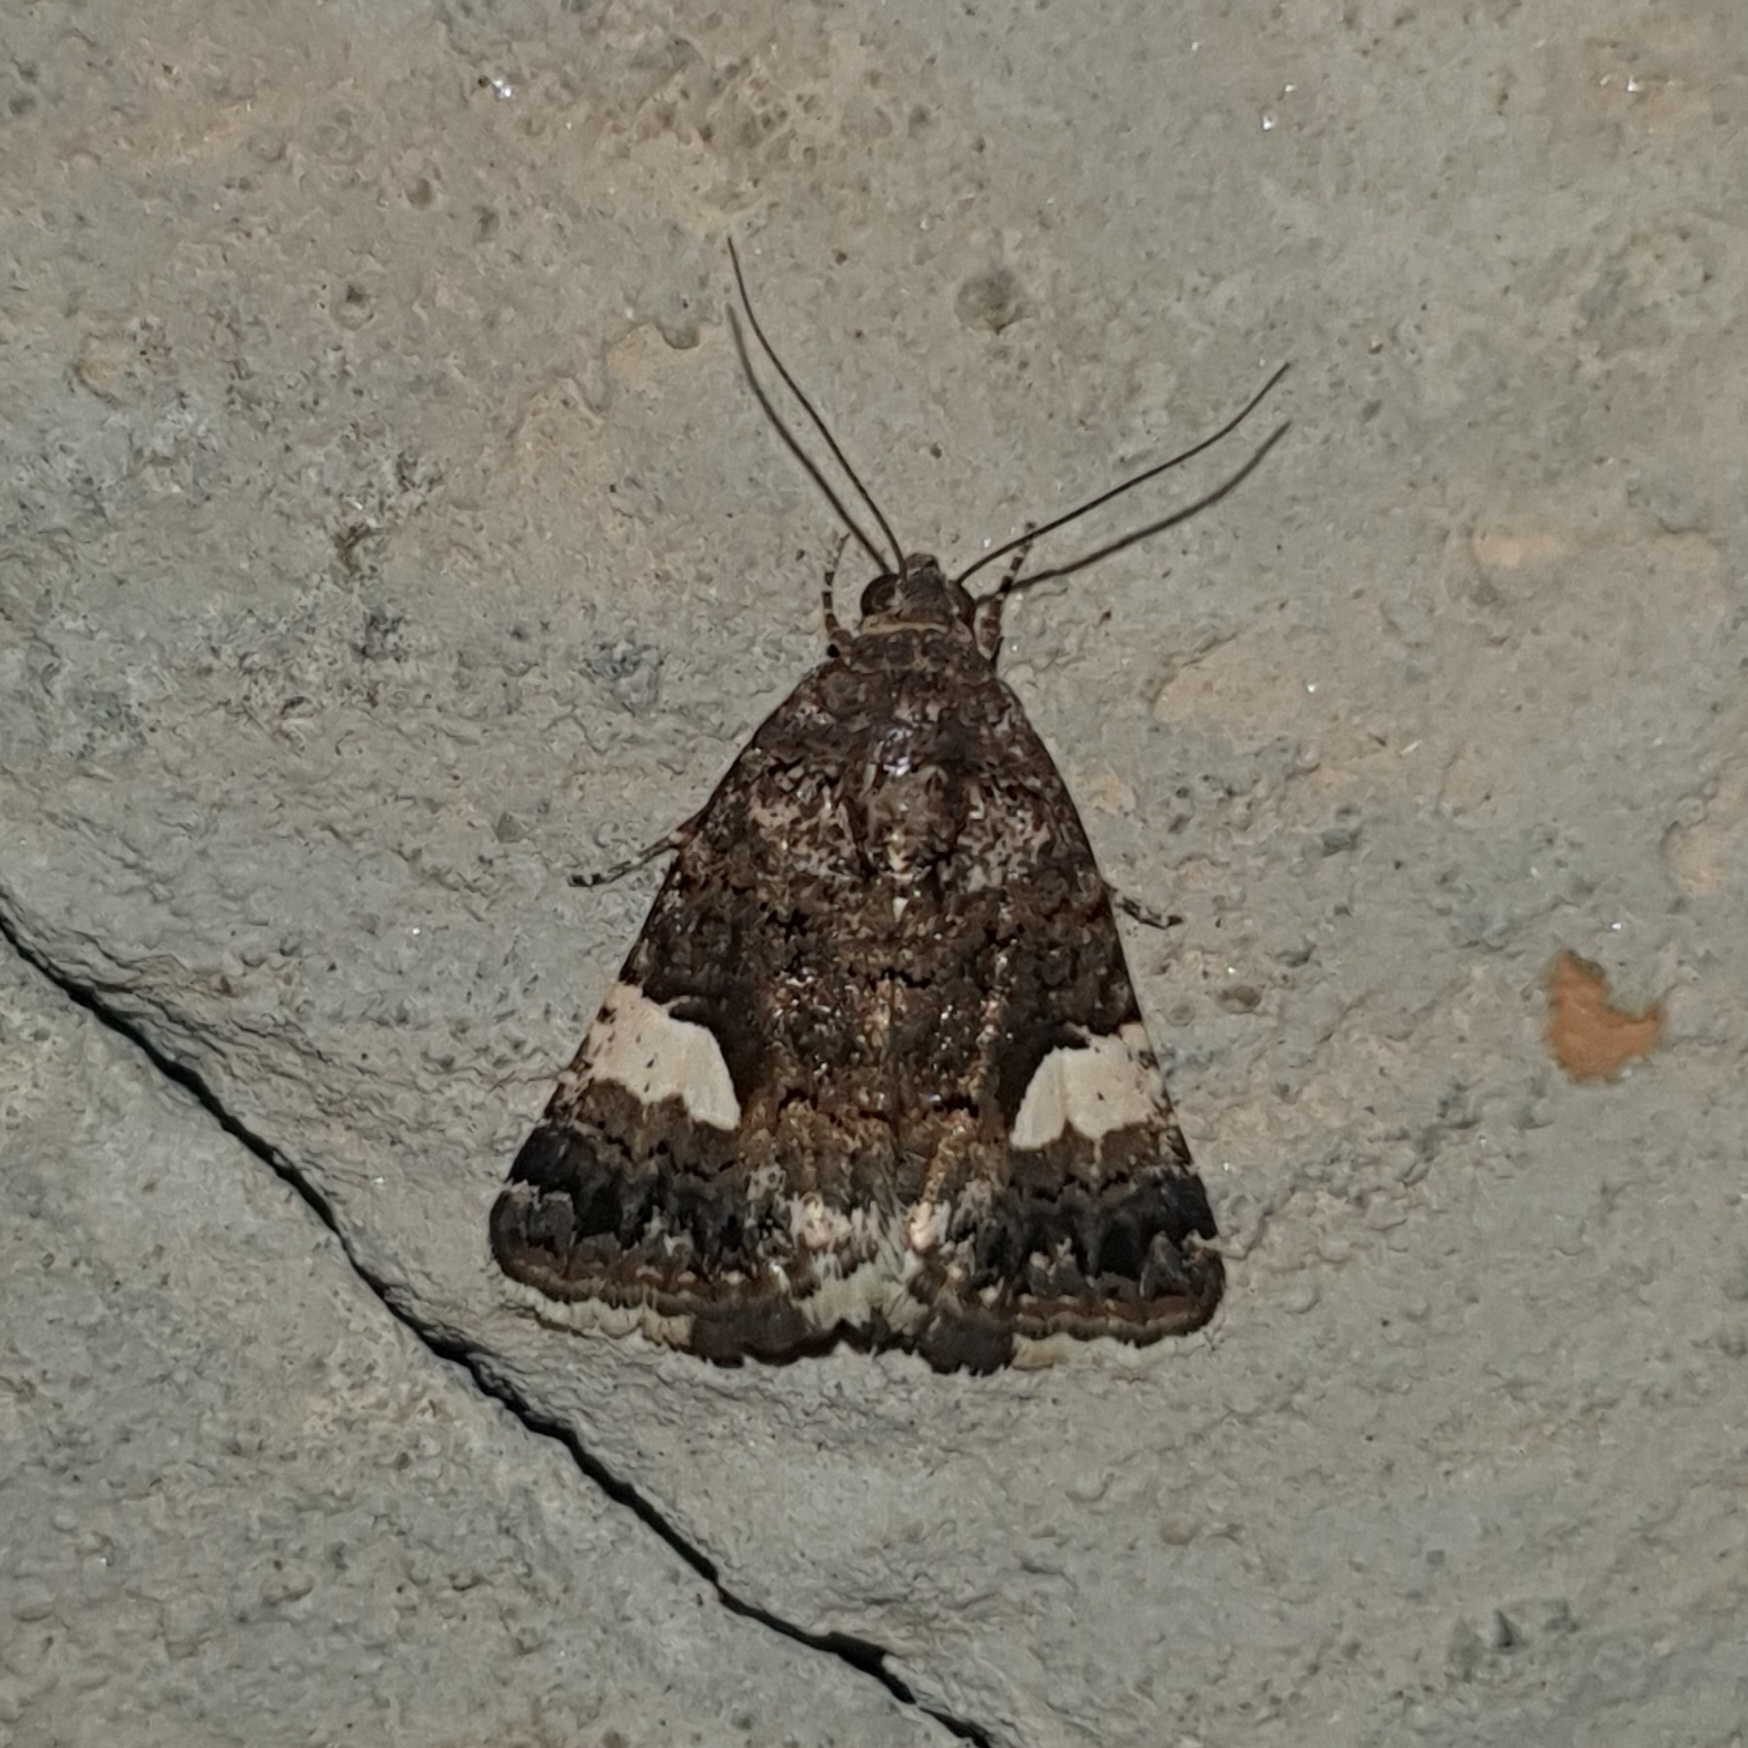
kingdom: Animalia
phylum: Arthropoda
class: Insecta
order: Lepidoptera
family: Erebidae
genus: Tyta
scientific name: Tyta luctuosa
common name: Four-spotted
